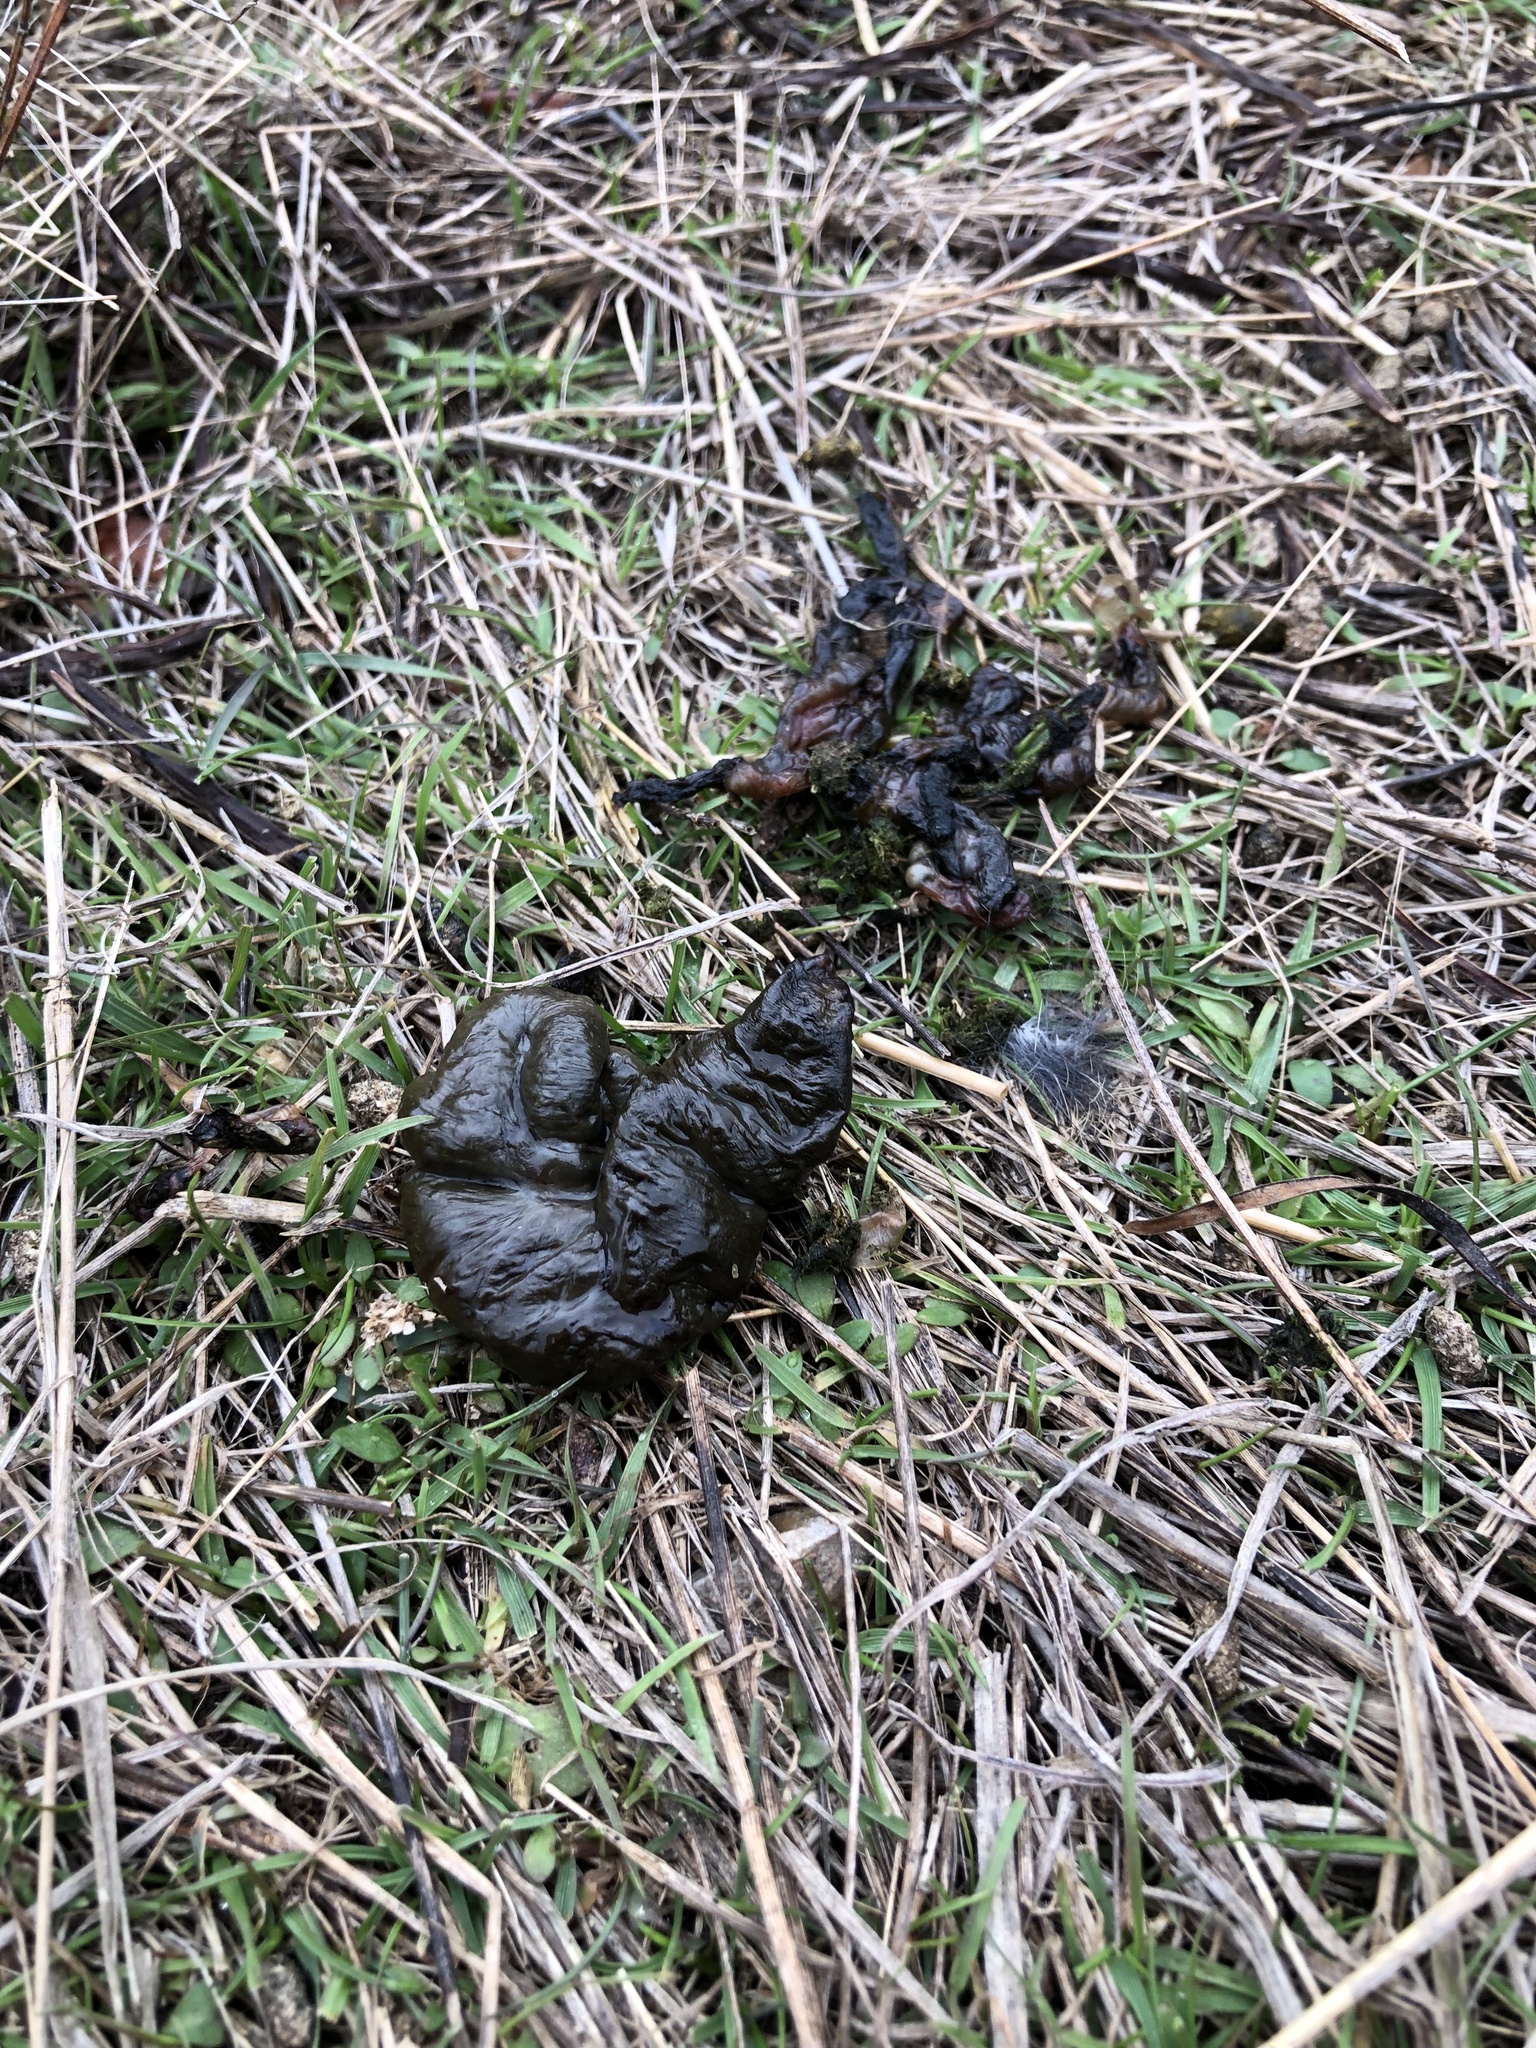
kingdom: Bacteria
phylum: Cyanobacteria
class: Cyanobacteriia
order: Cyanobacteriales
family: Nostocaceae
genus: Nostoc
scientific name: Nostoc commune
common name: Star jelly
